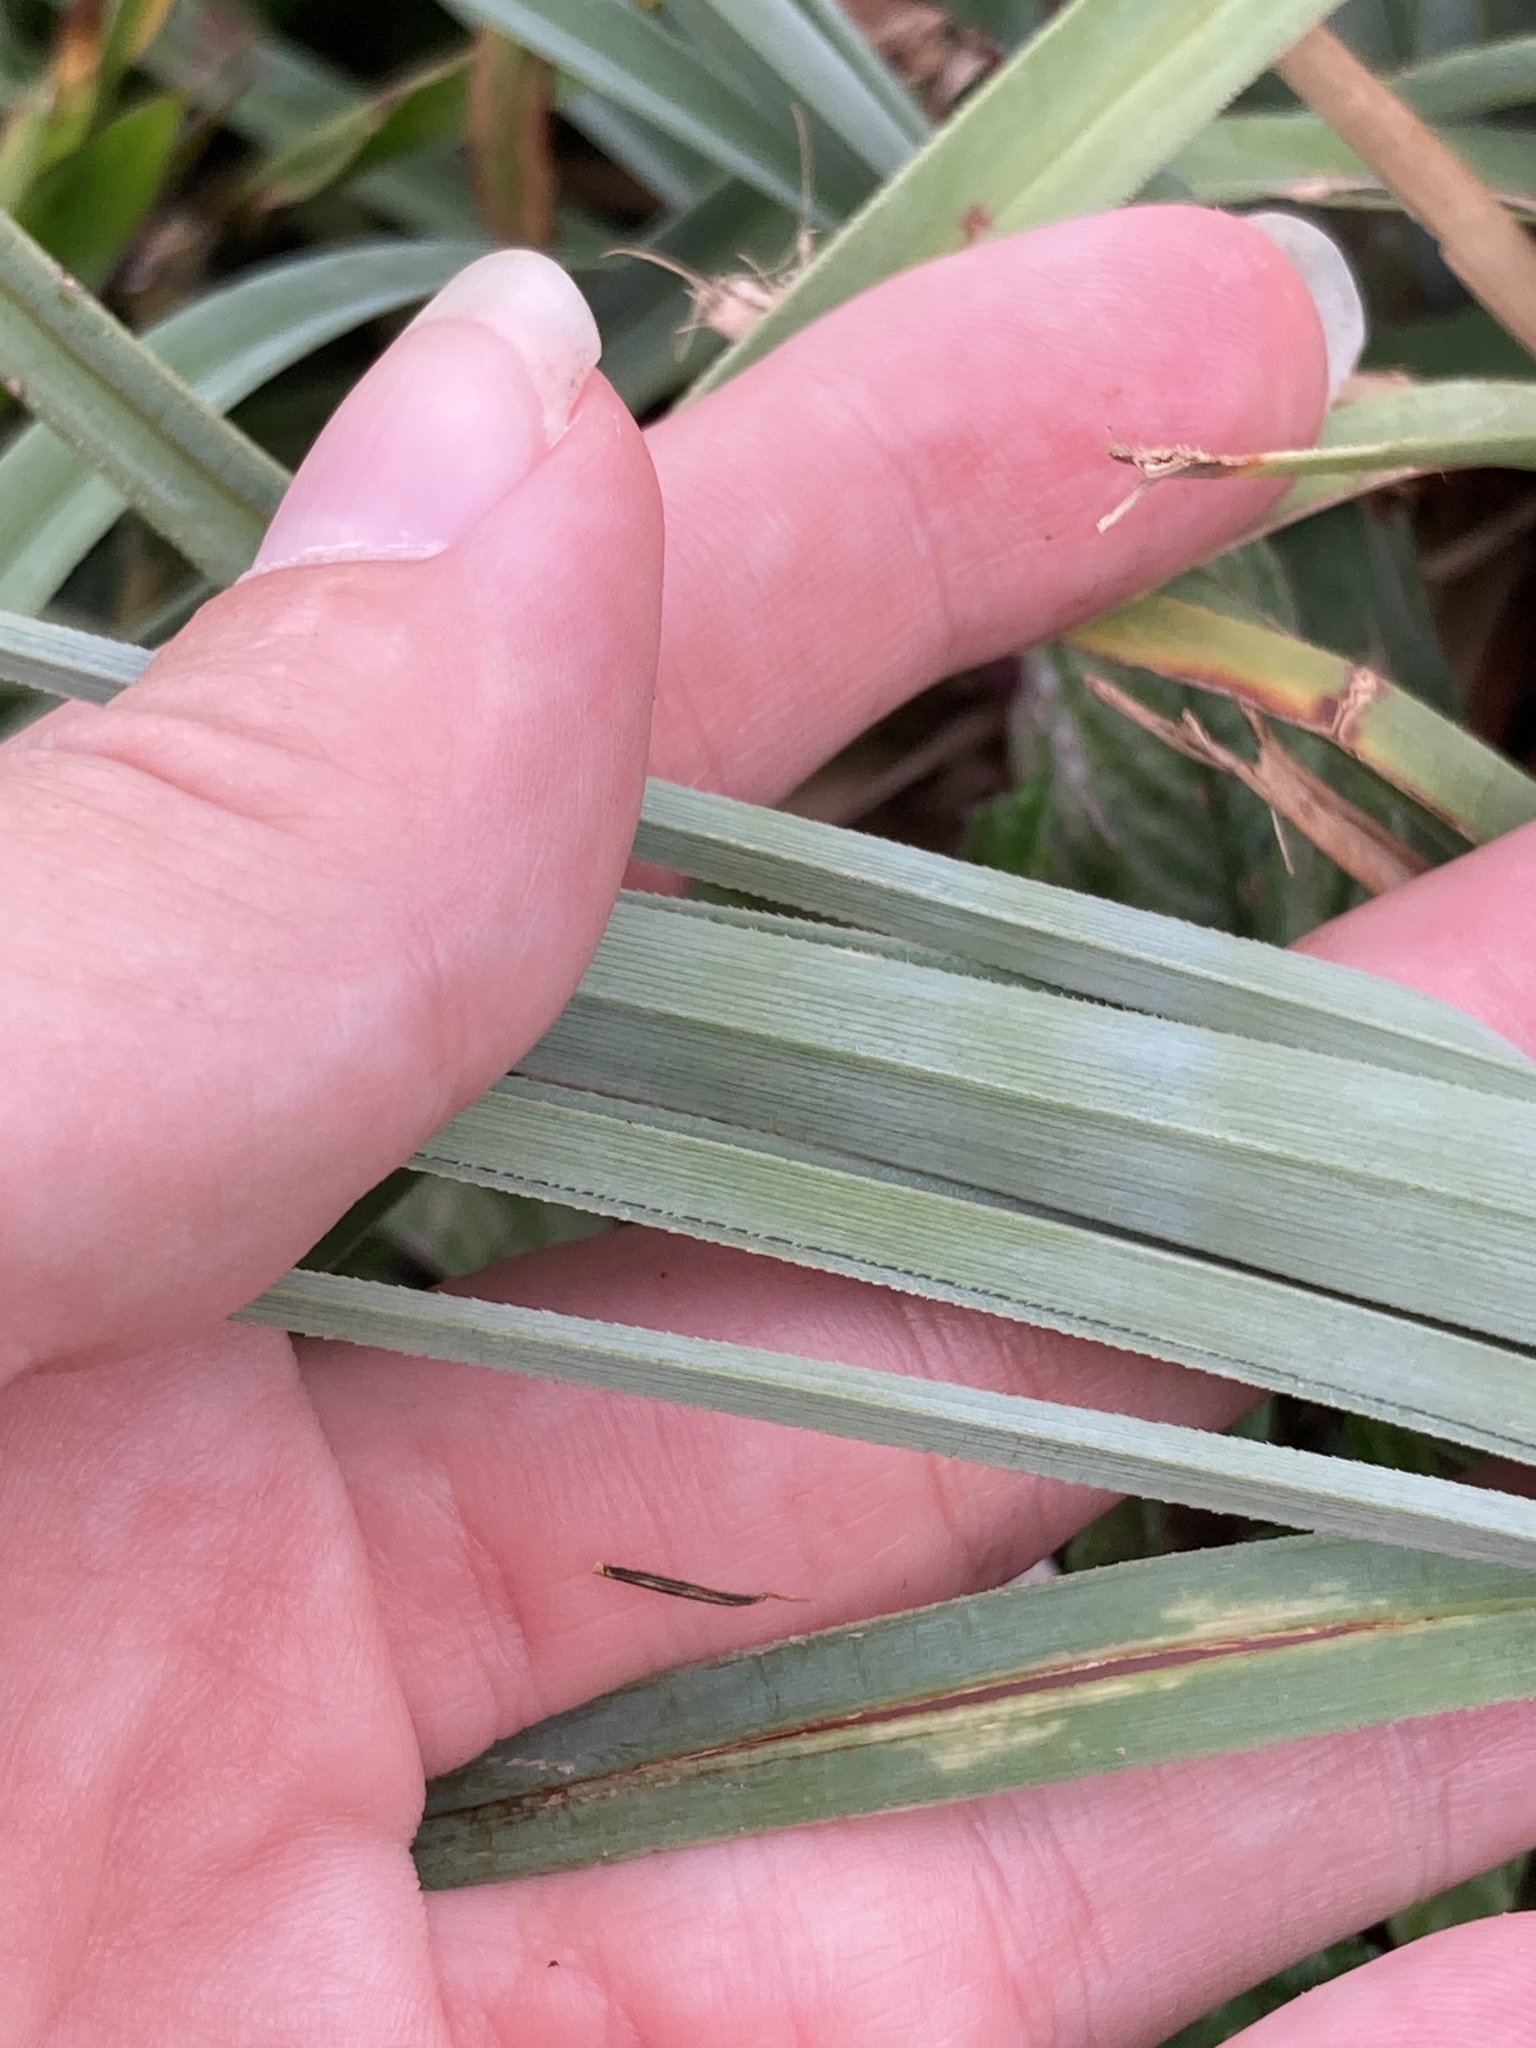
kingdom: Plantae
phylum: Tracheophyta
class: Liliopsida
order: Poales
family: Cyperaceae
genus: Cyperus
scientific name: Cyperus ligularis
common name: Swamp flat sedge
